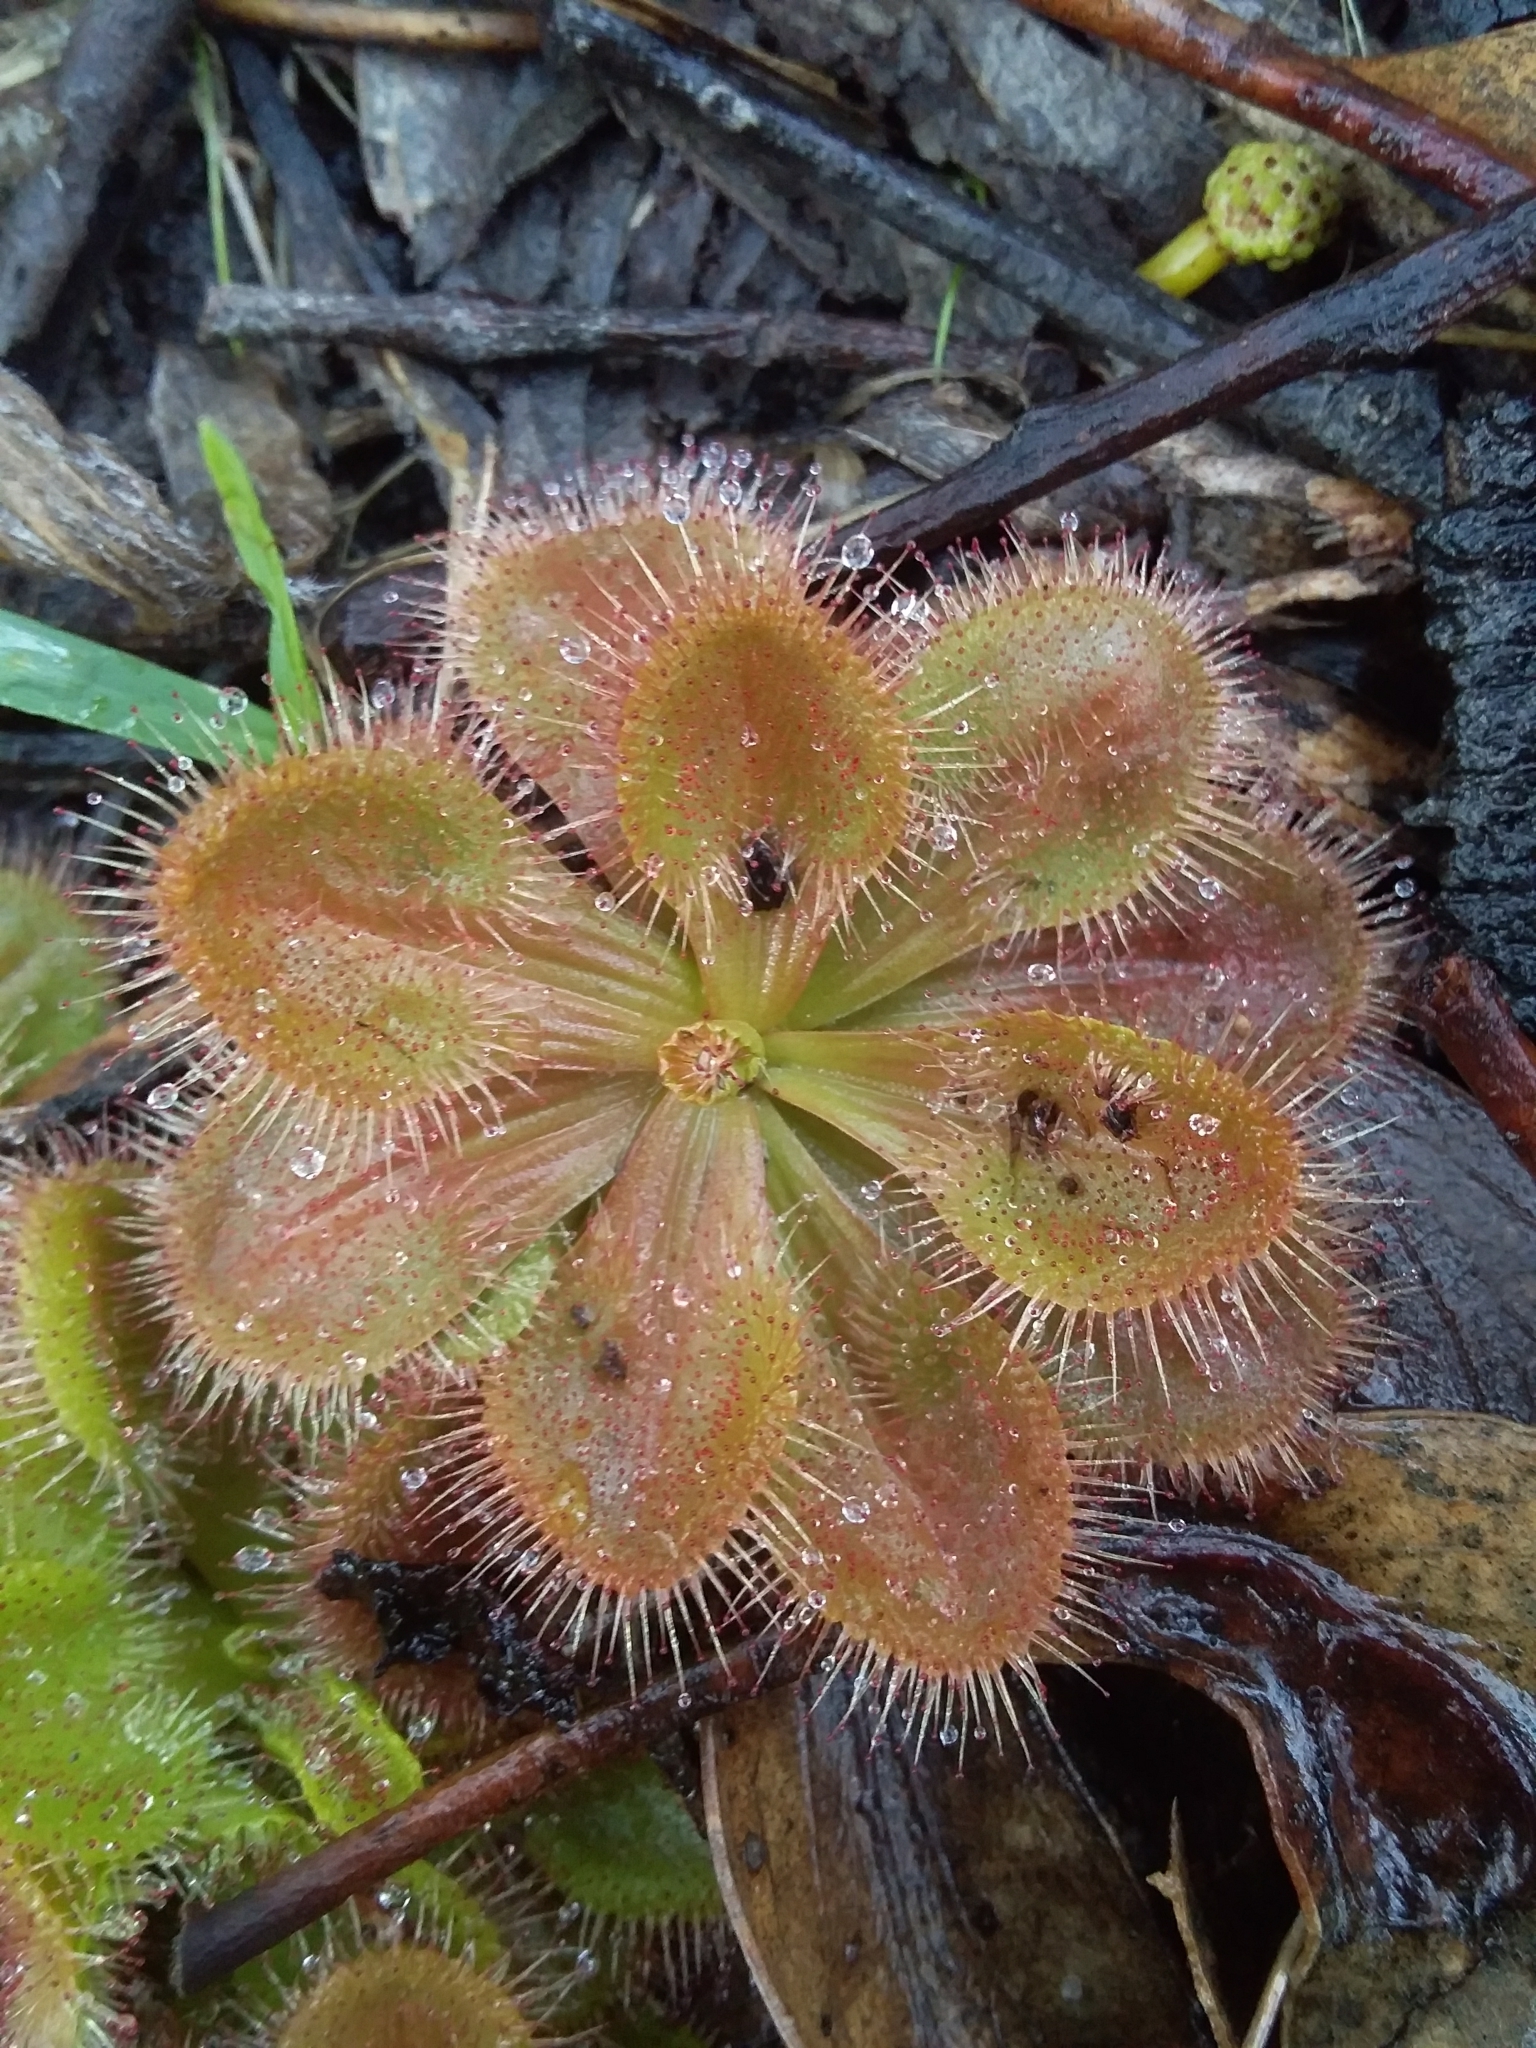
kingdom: Plantae
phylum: Tracheophyta
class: Magnoliopsida
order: Caryophyllales
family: Droseraceae
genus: Drosera
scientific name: Drosera whittakeri
